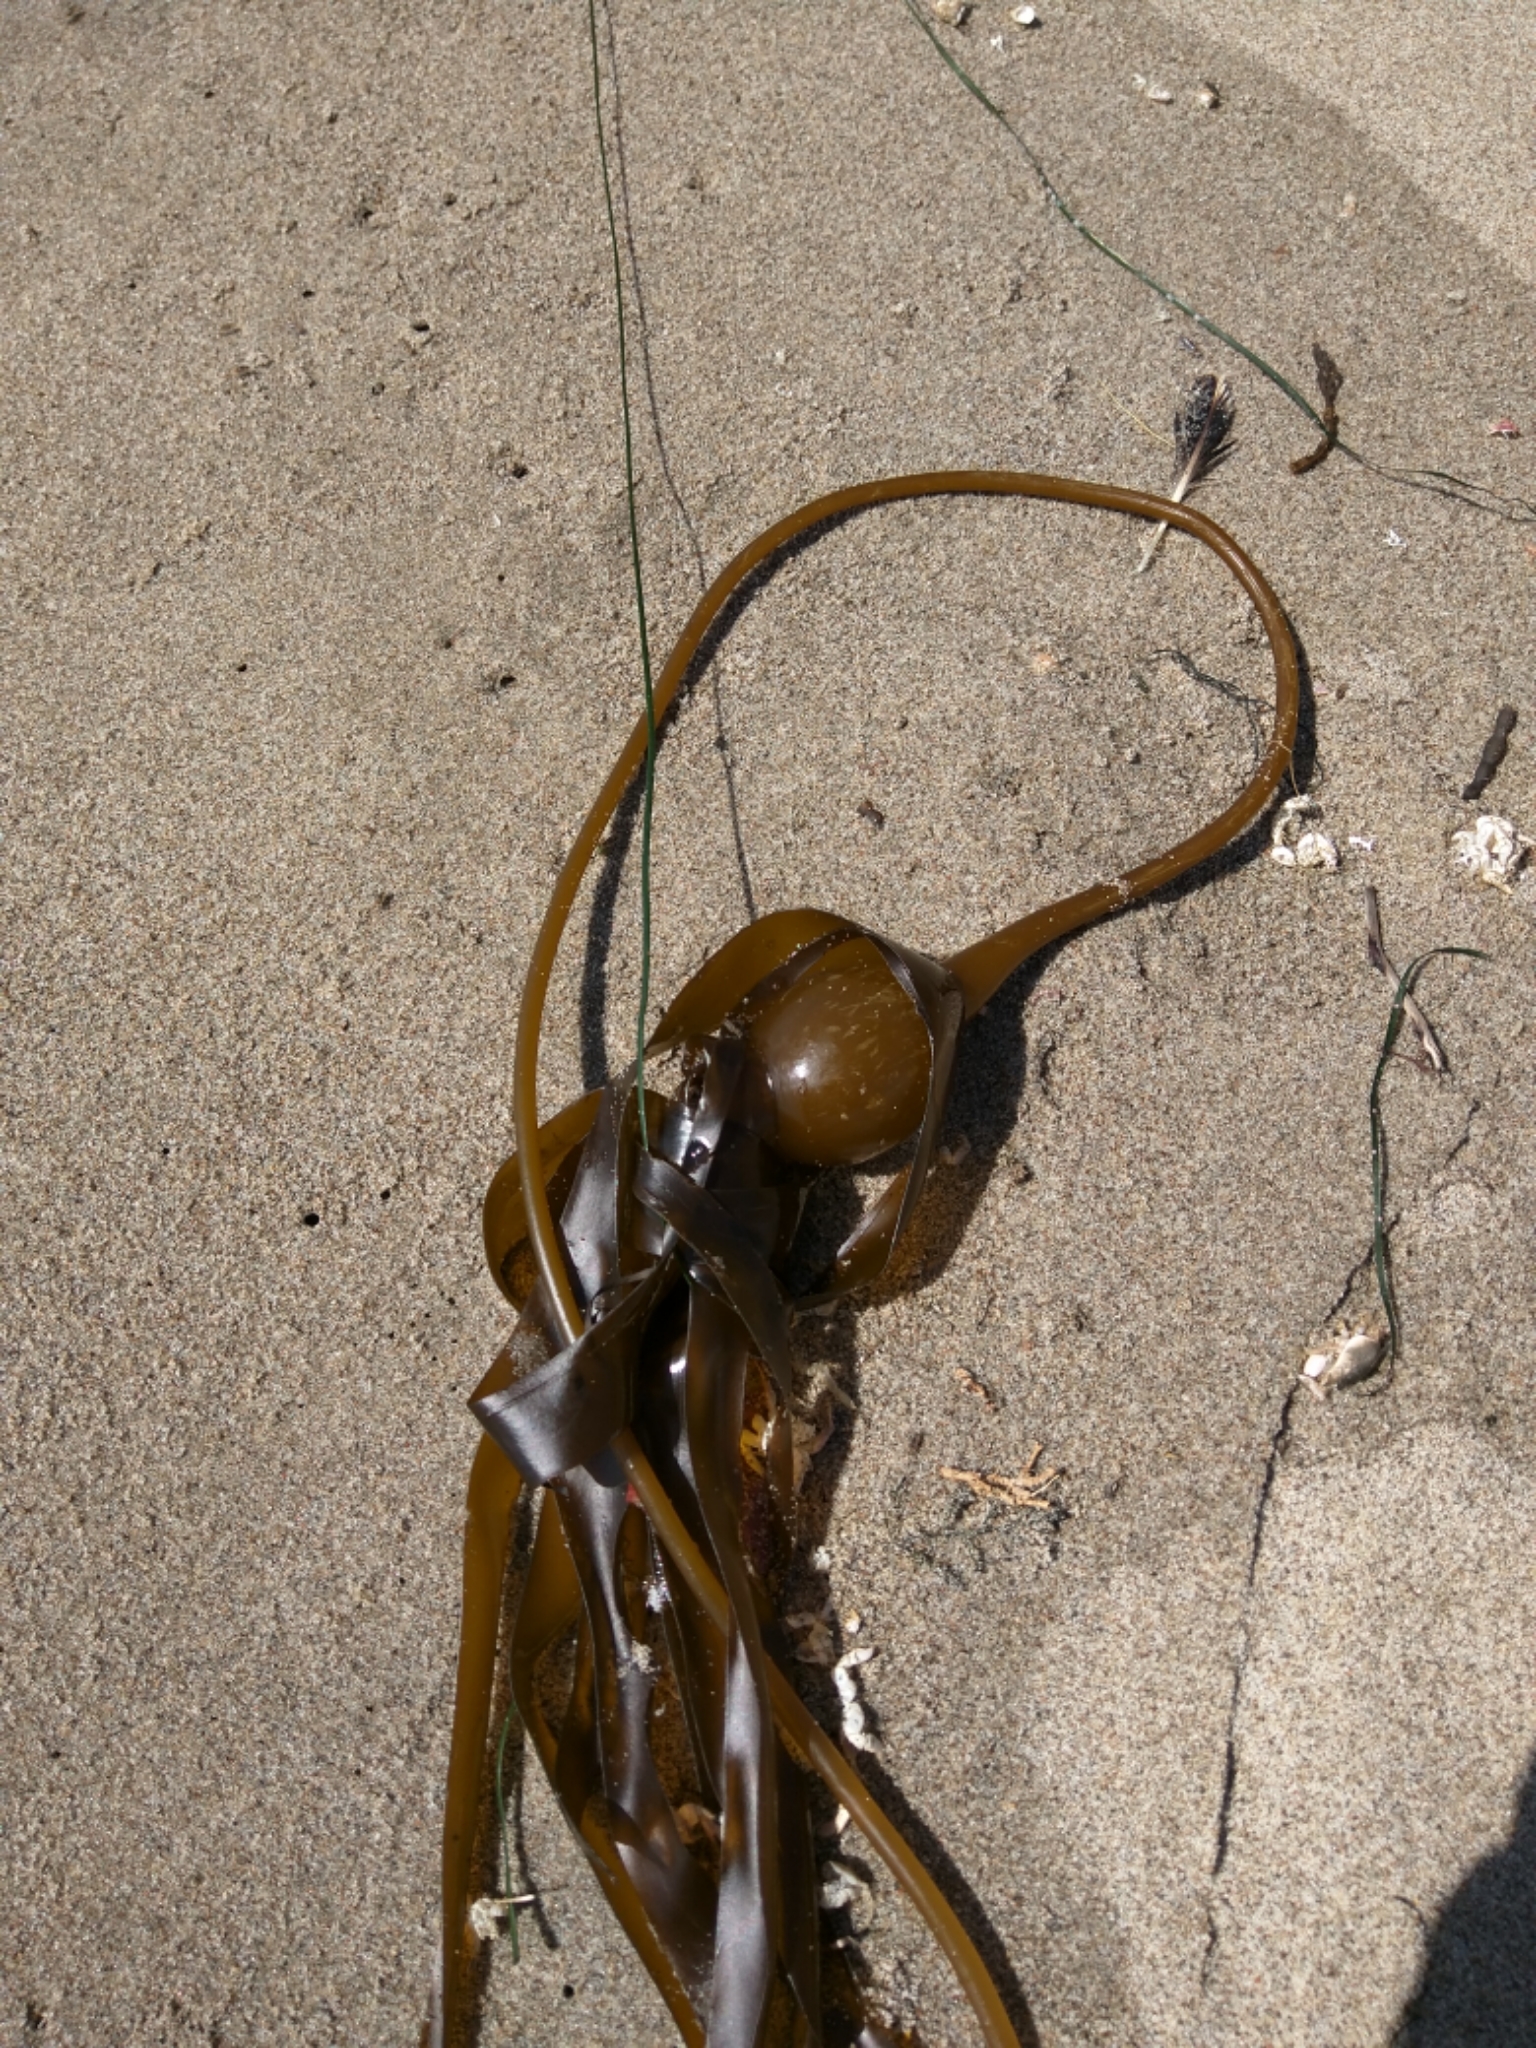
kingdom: Chromista
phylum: Ochrophyta
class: Phaeophyceae
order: Laminariales
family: Laminariaceae
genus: Nereocystis
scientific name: Nereocystis luetkeana
